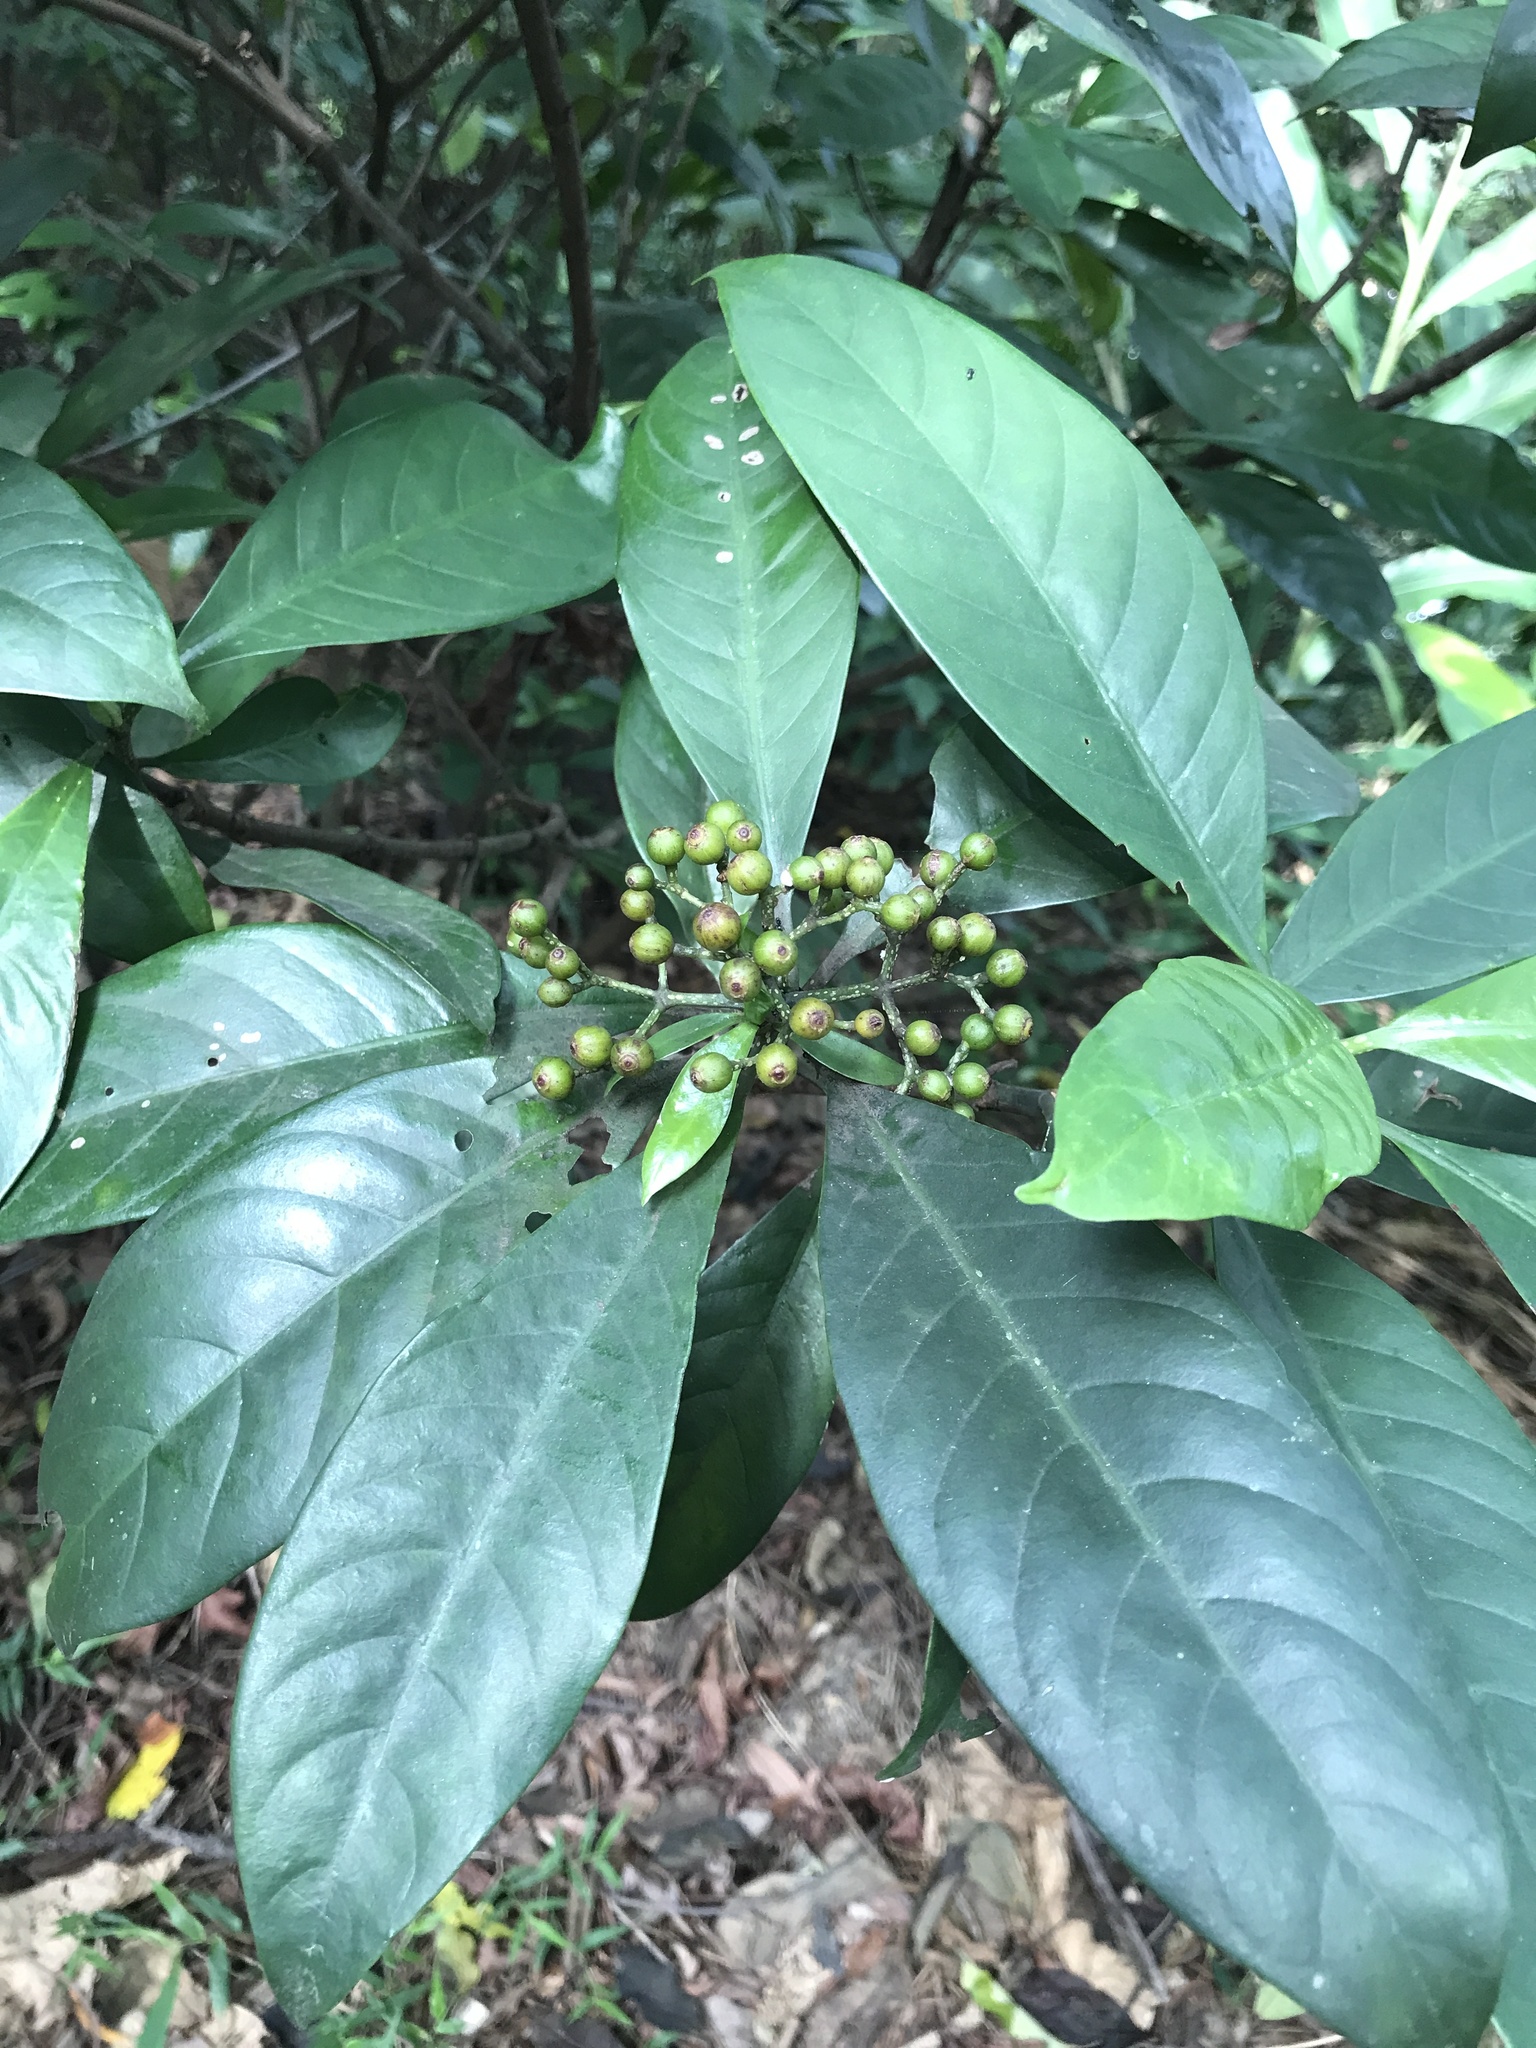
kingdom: Plantae
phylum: Tracheophyta
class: Magnoliopsida
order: Gentianales
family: Rubiaceae
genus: Psychotria
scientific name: Psychotria asiatica
